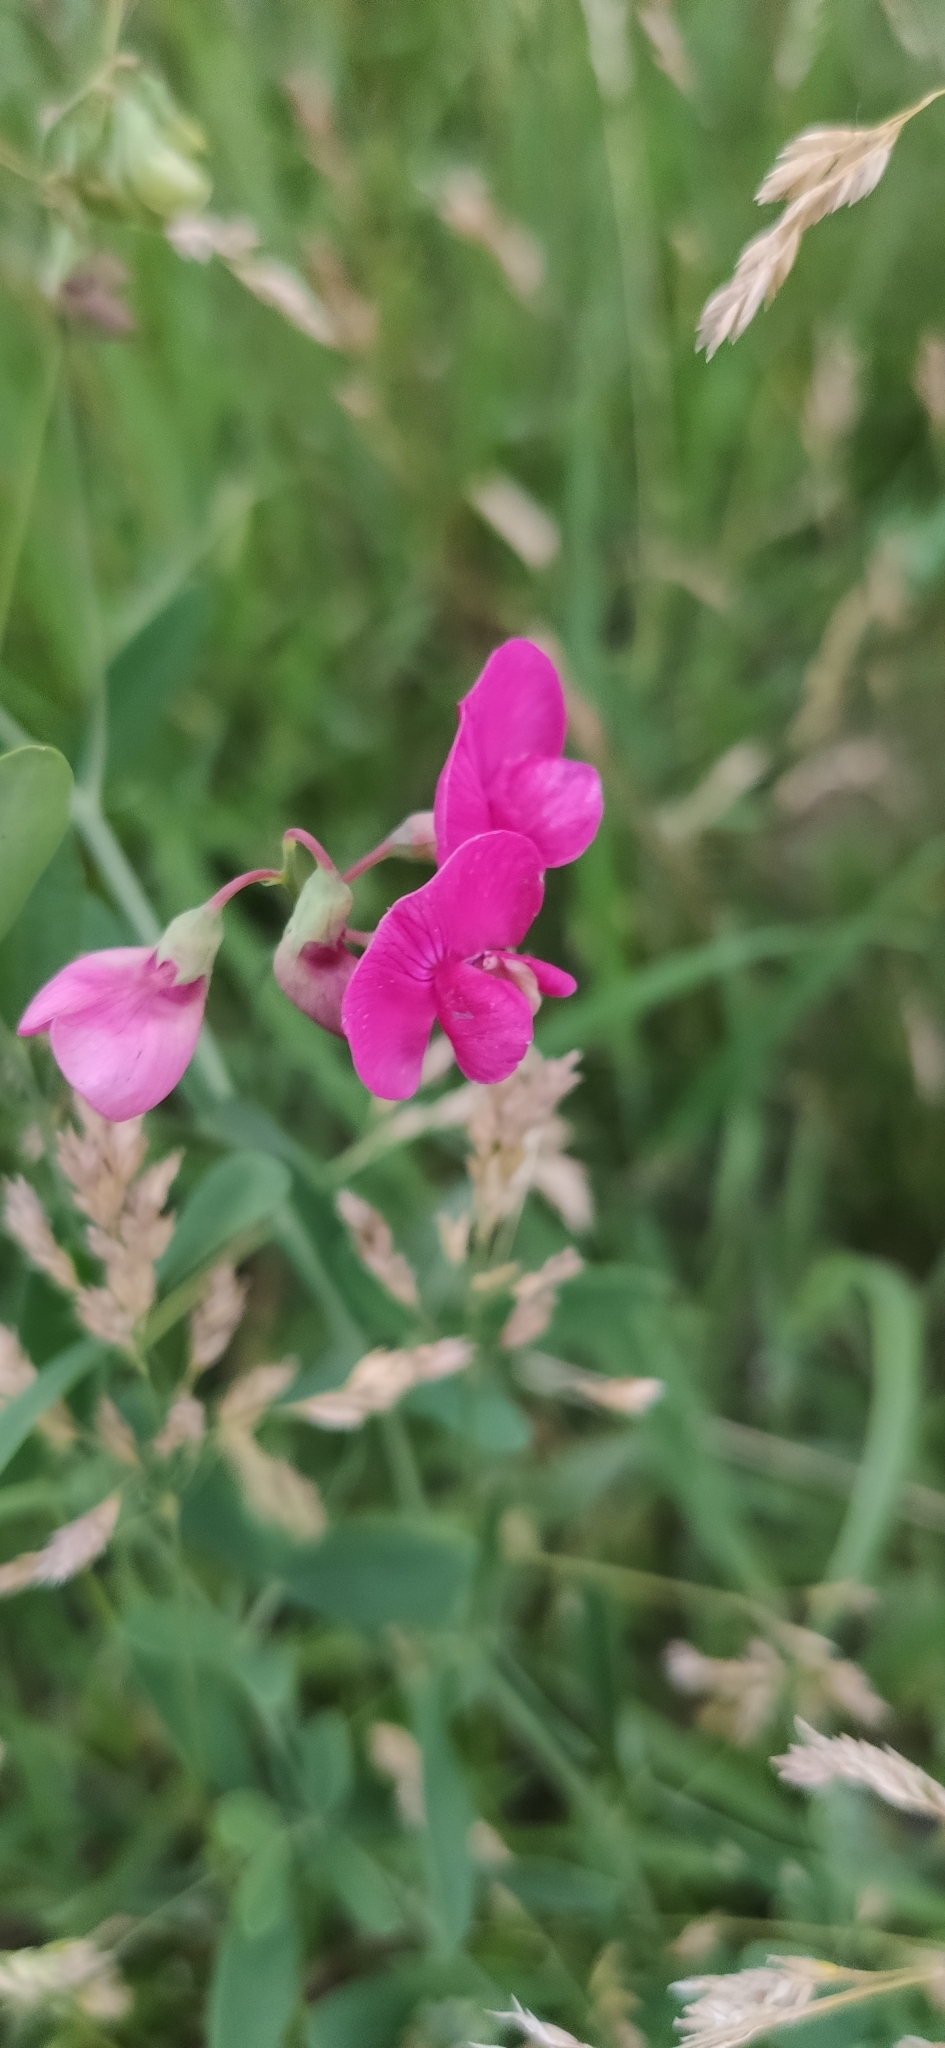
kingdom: Plantae
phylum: Tracheophyta
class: Magnoliopsida
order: Fabales
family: Fabaceae
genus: Lathyrus
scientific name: Lathyrus tuberosus
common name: Tuberous pea
